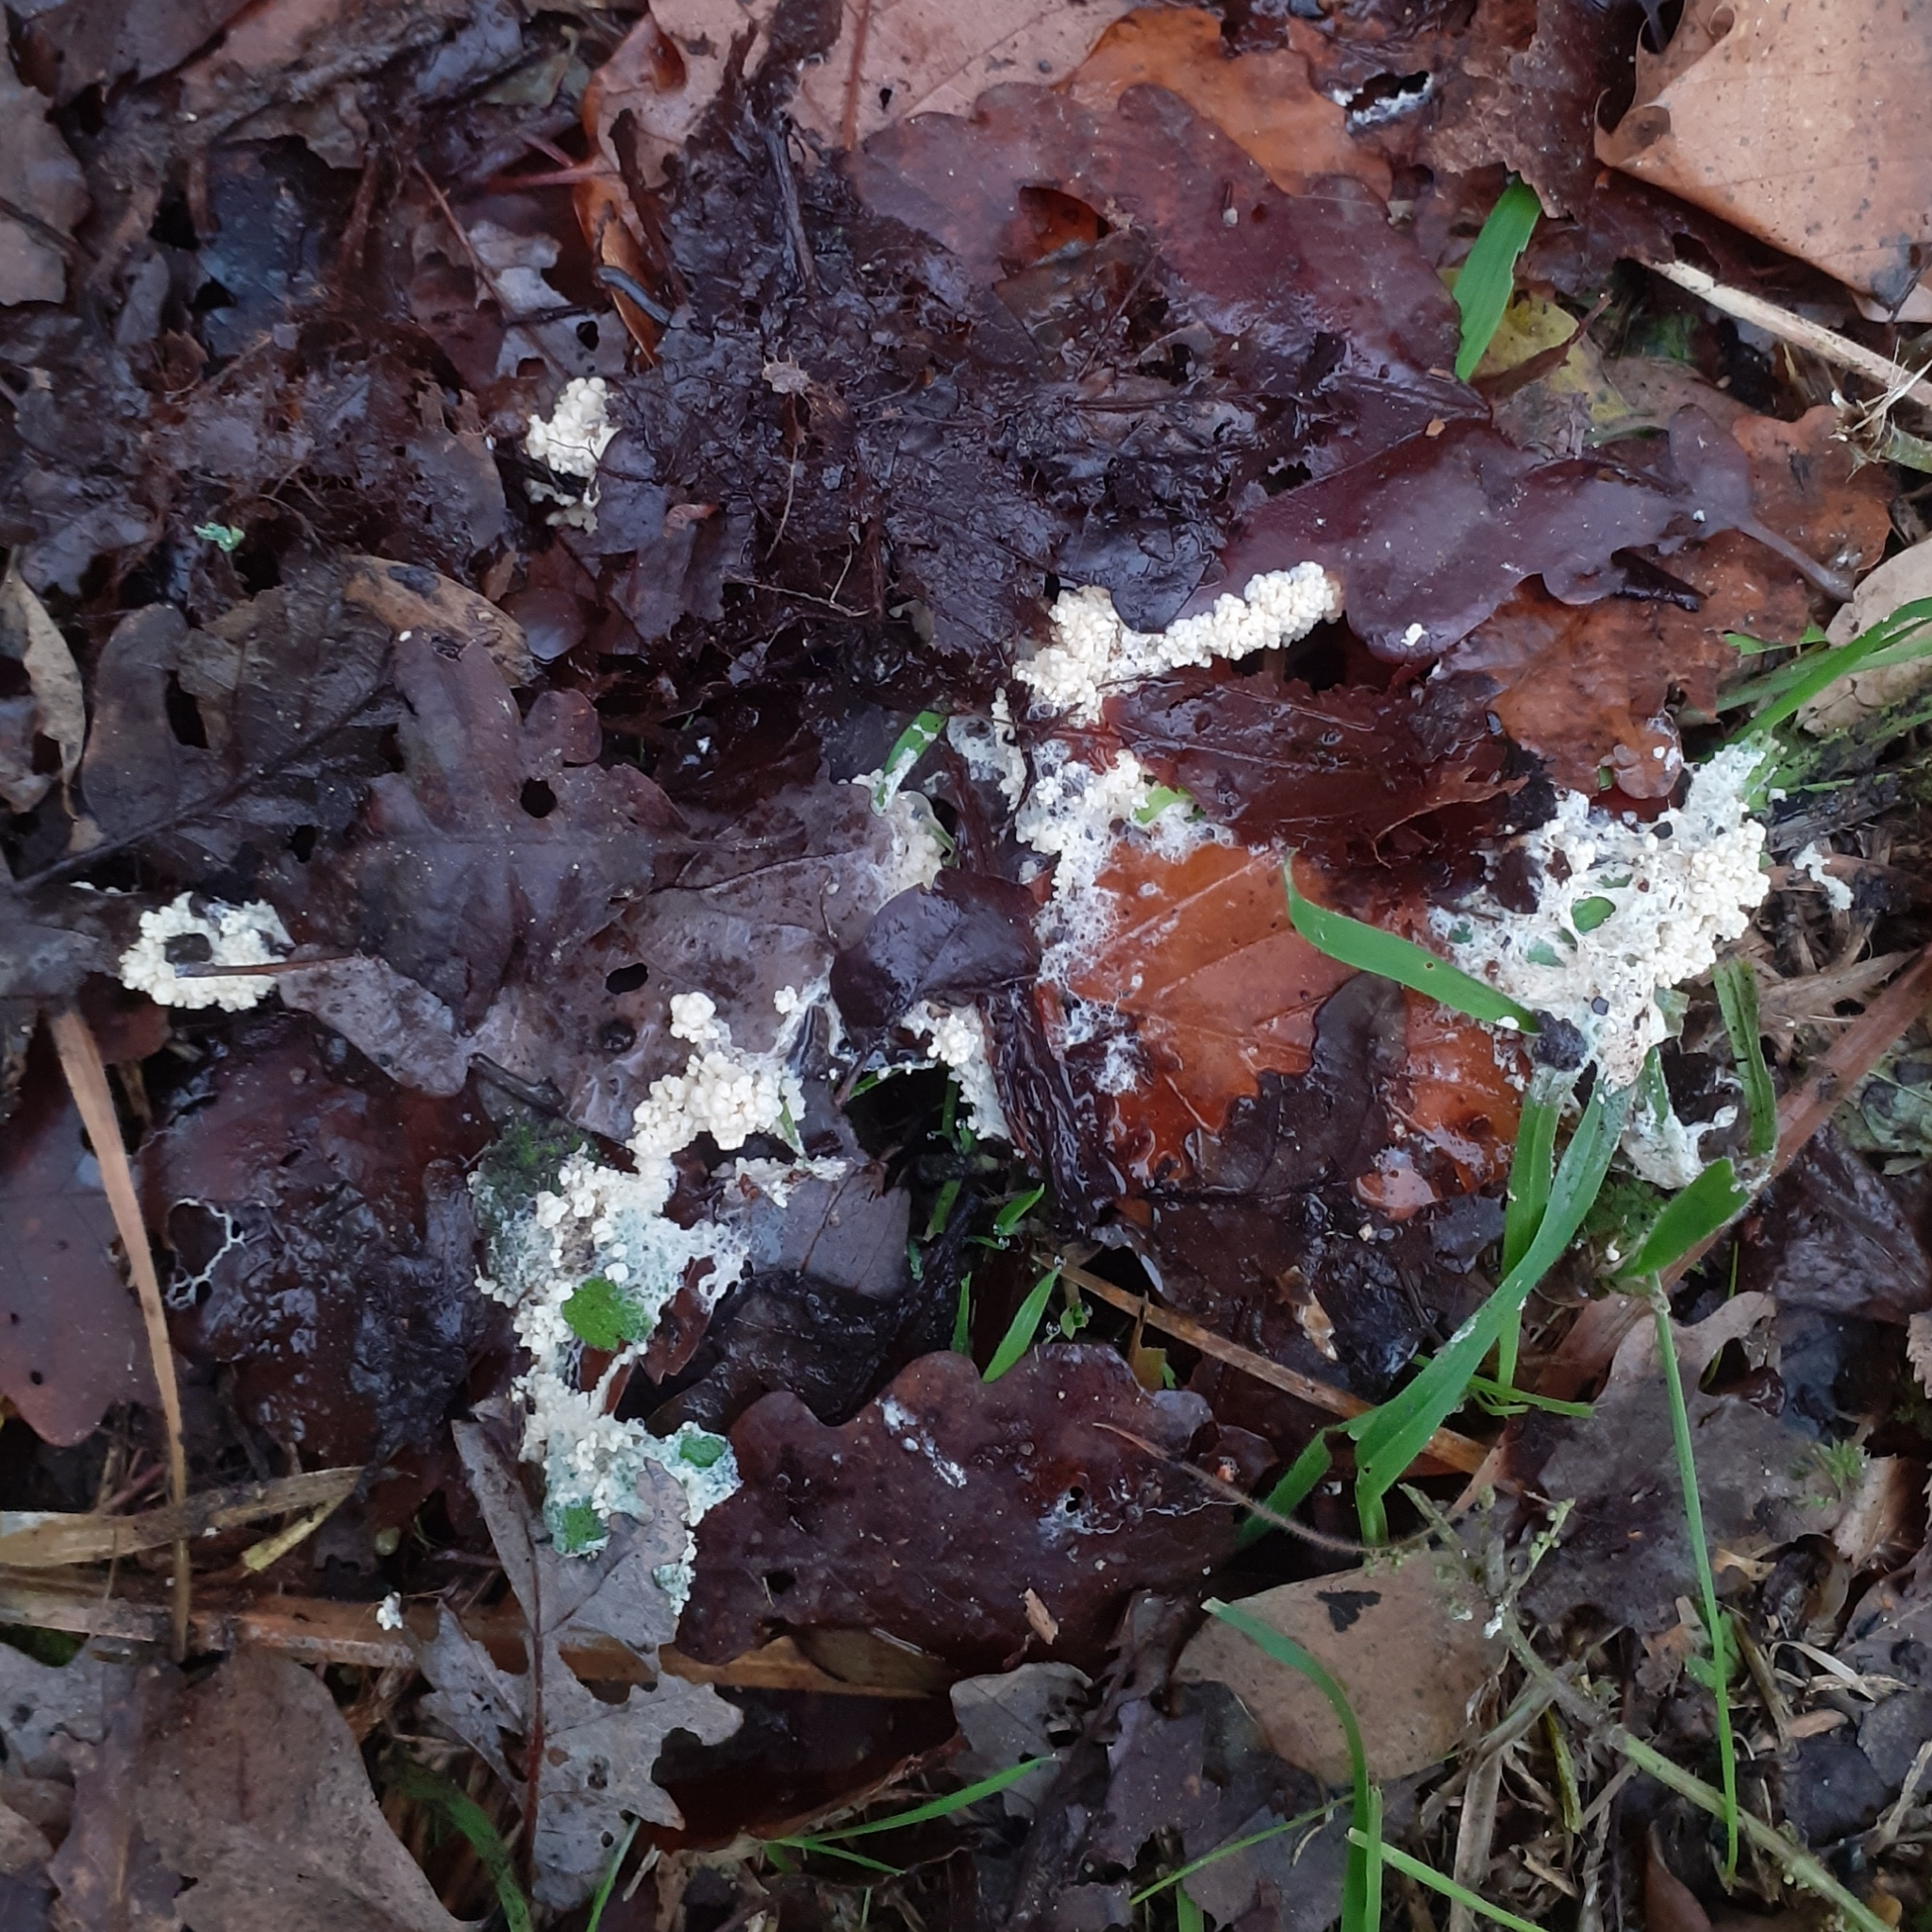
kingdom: Protozoa
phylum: Mycetozoa
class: Myxomycetes
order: Physarales
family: Physaraceae
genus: Didymium
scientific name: Didymium
